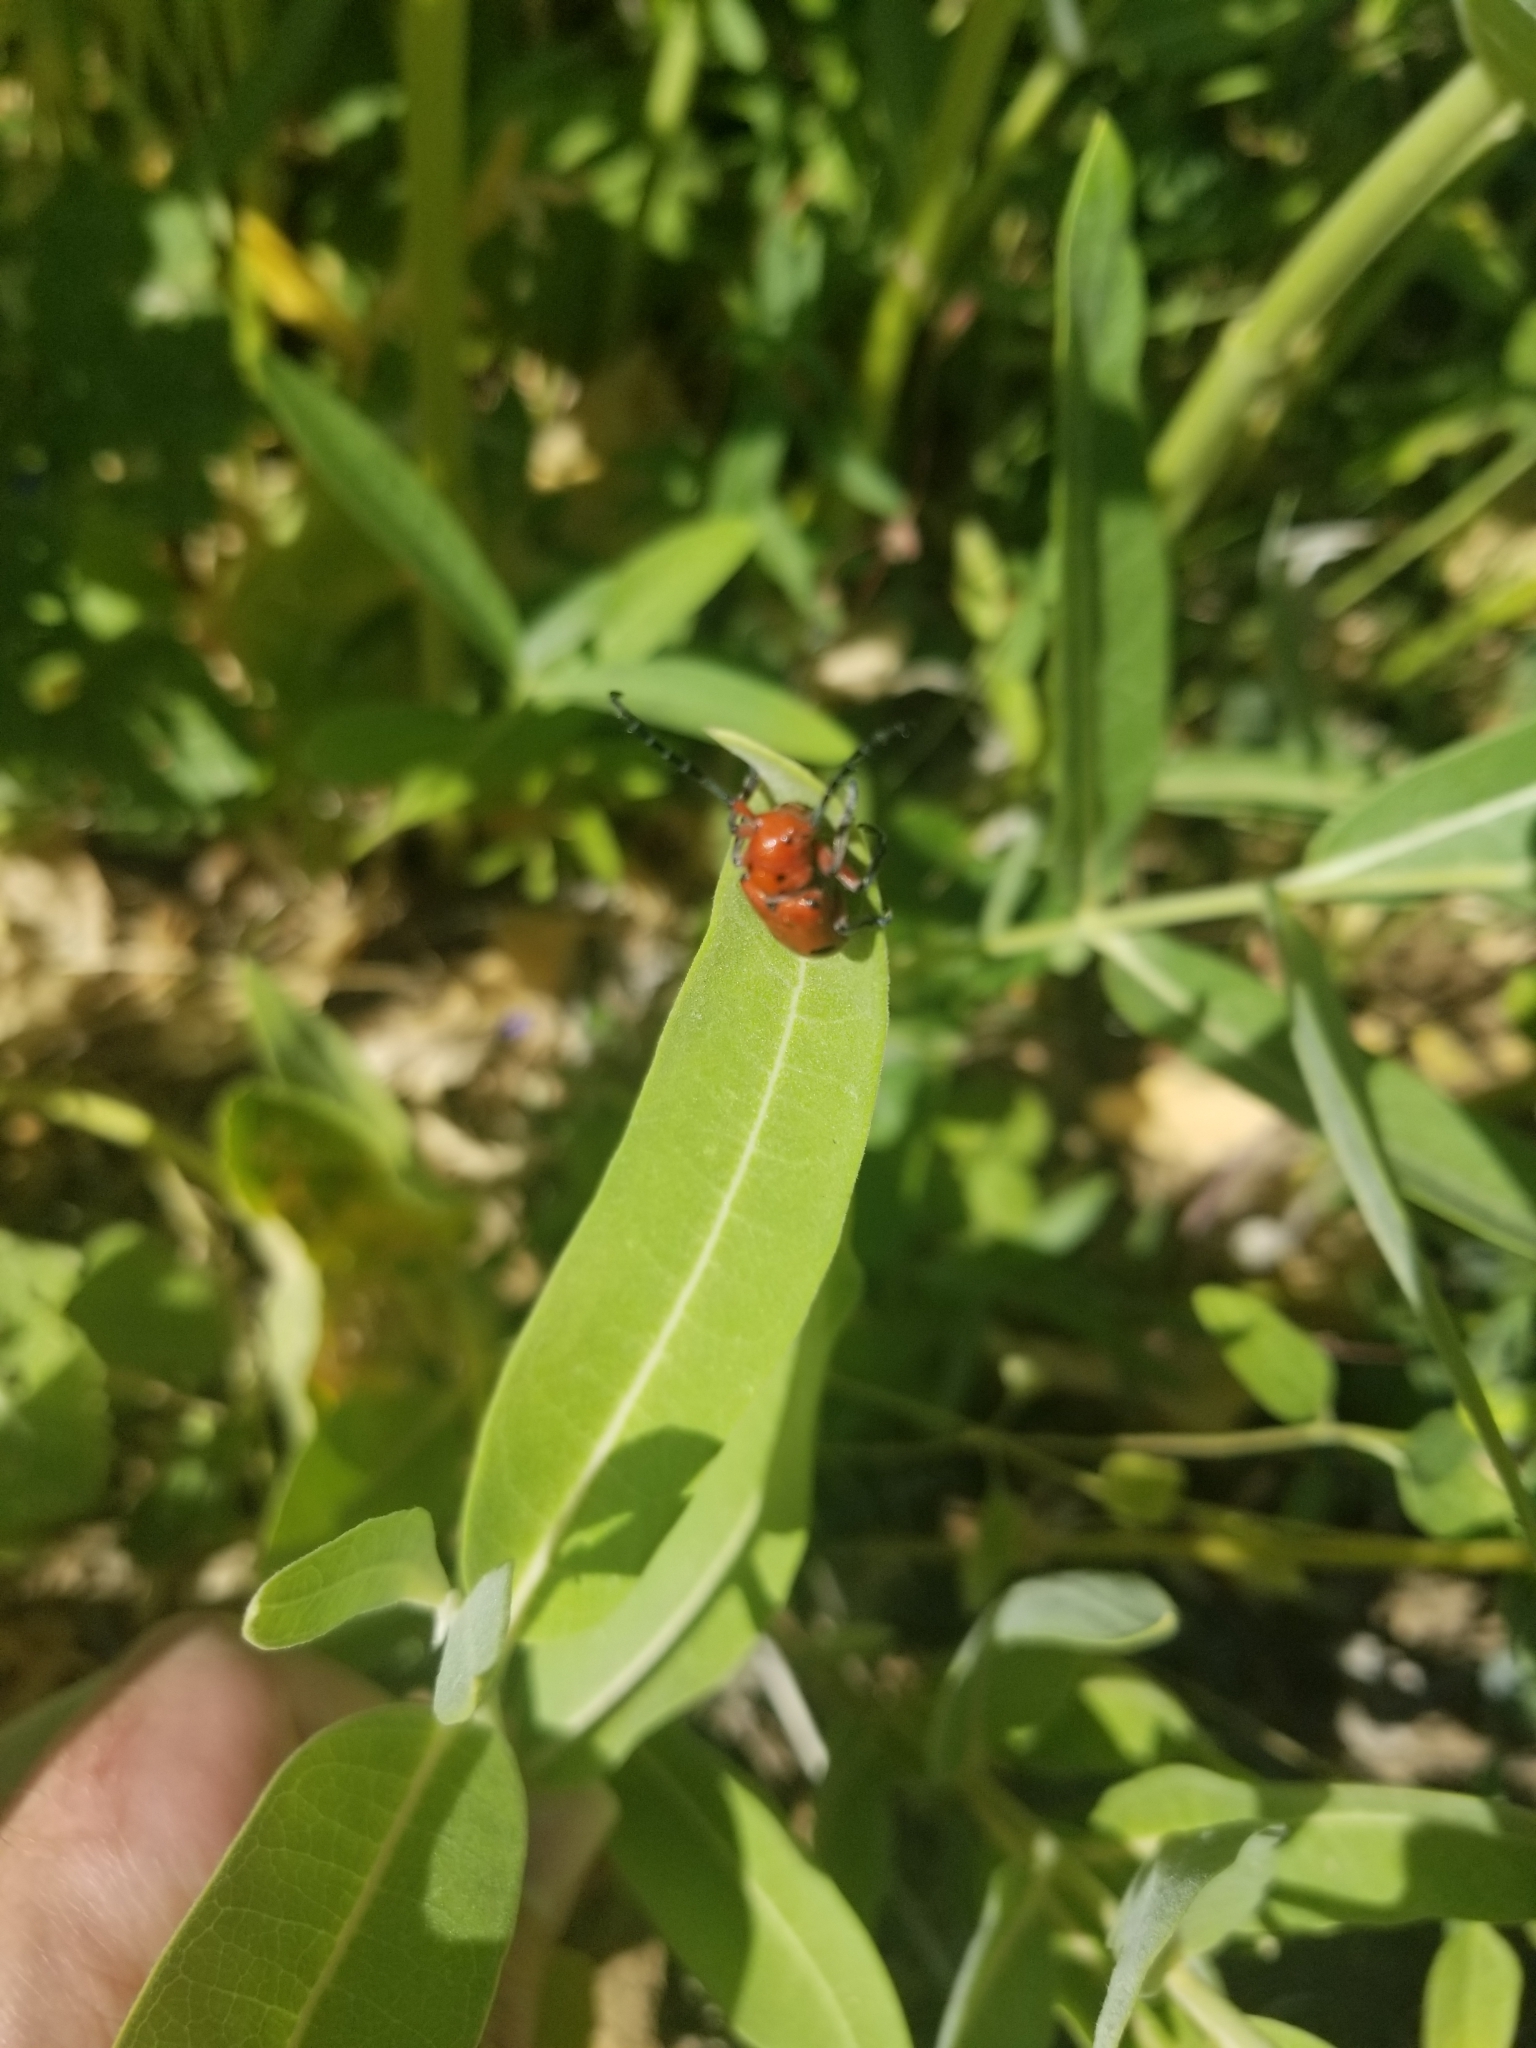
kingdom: Animalia
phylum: Arthropoda
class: Insecta
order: Coleoptera
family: Cerambycidae
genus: Tetraopes
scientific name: Tetraopes femoratus
